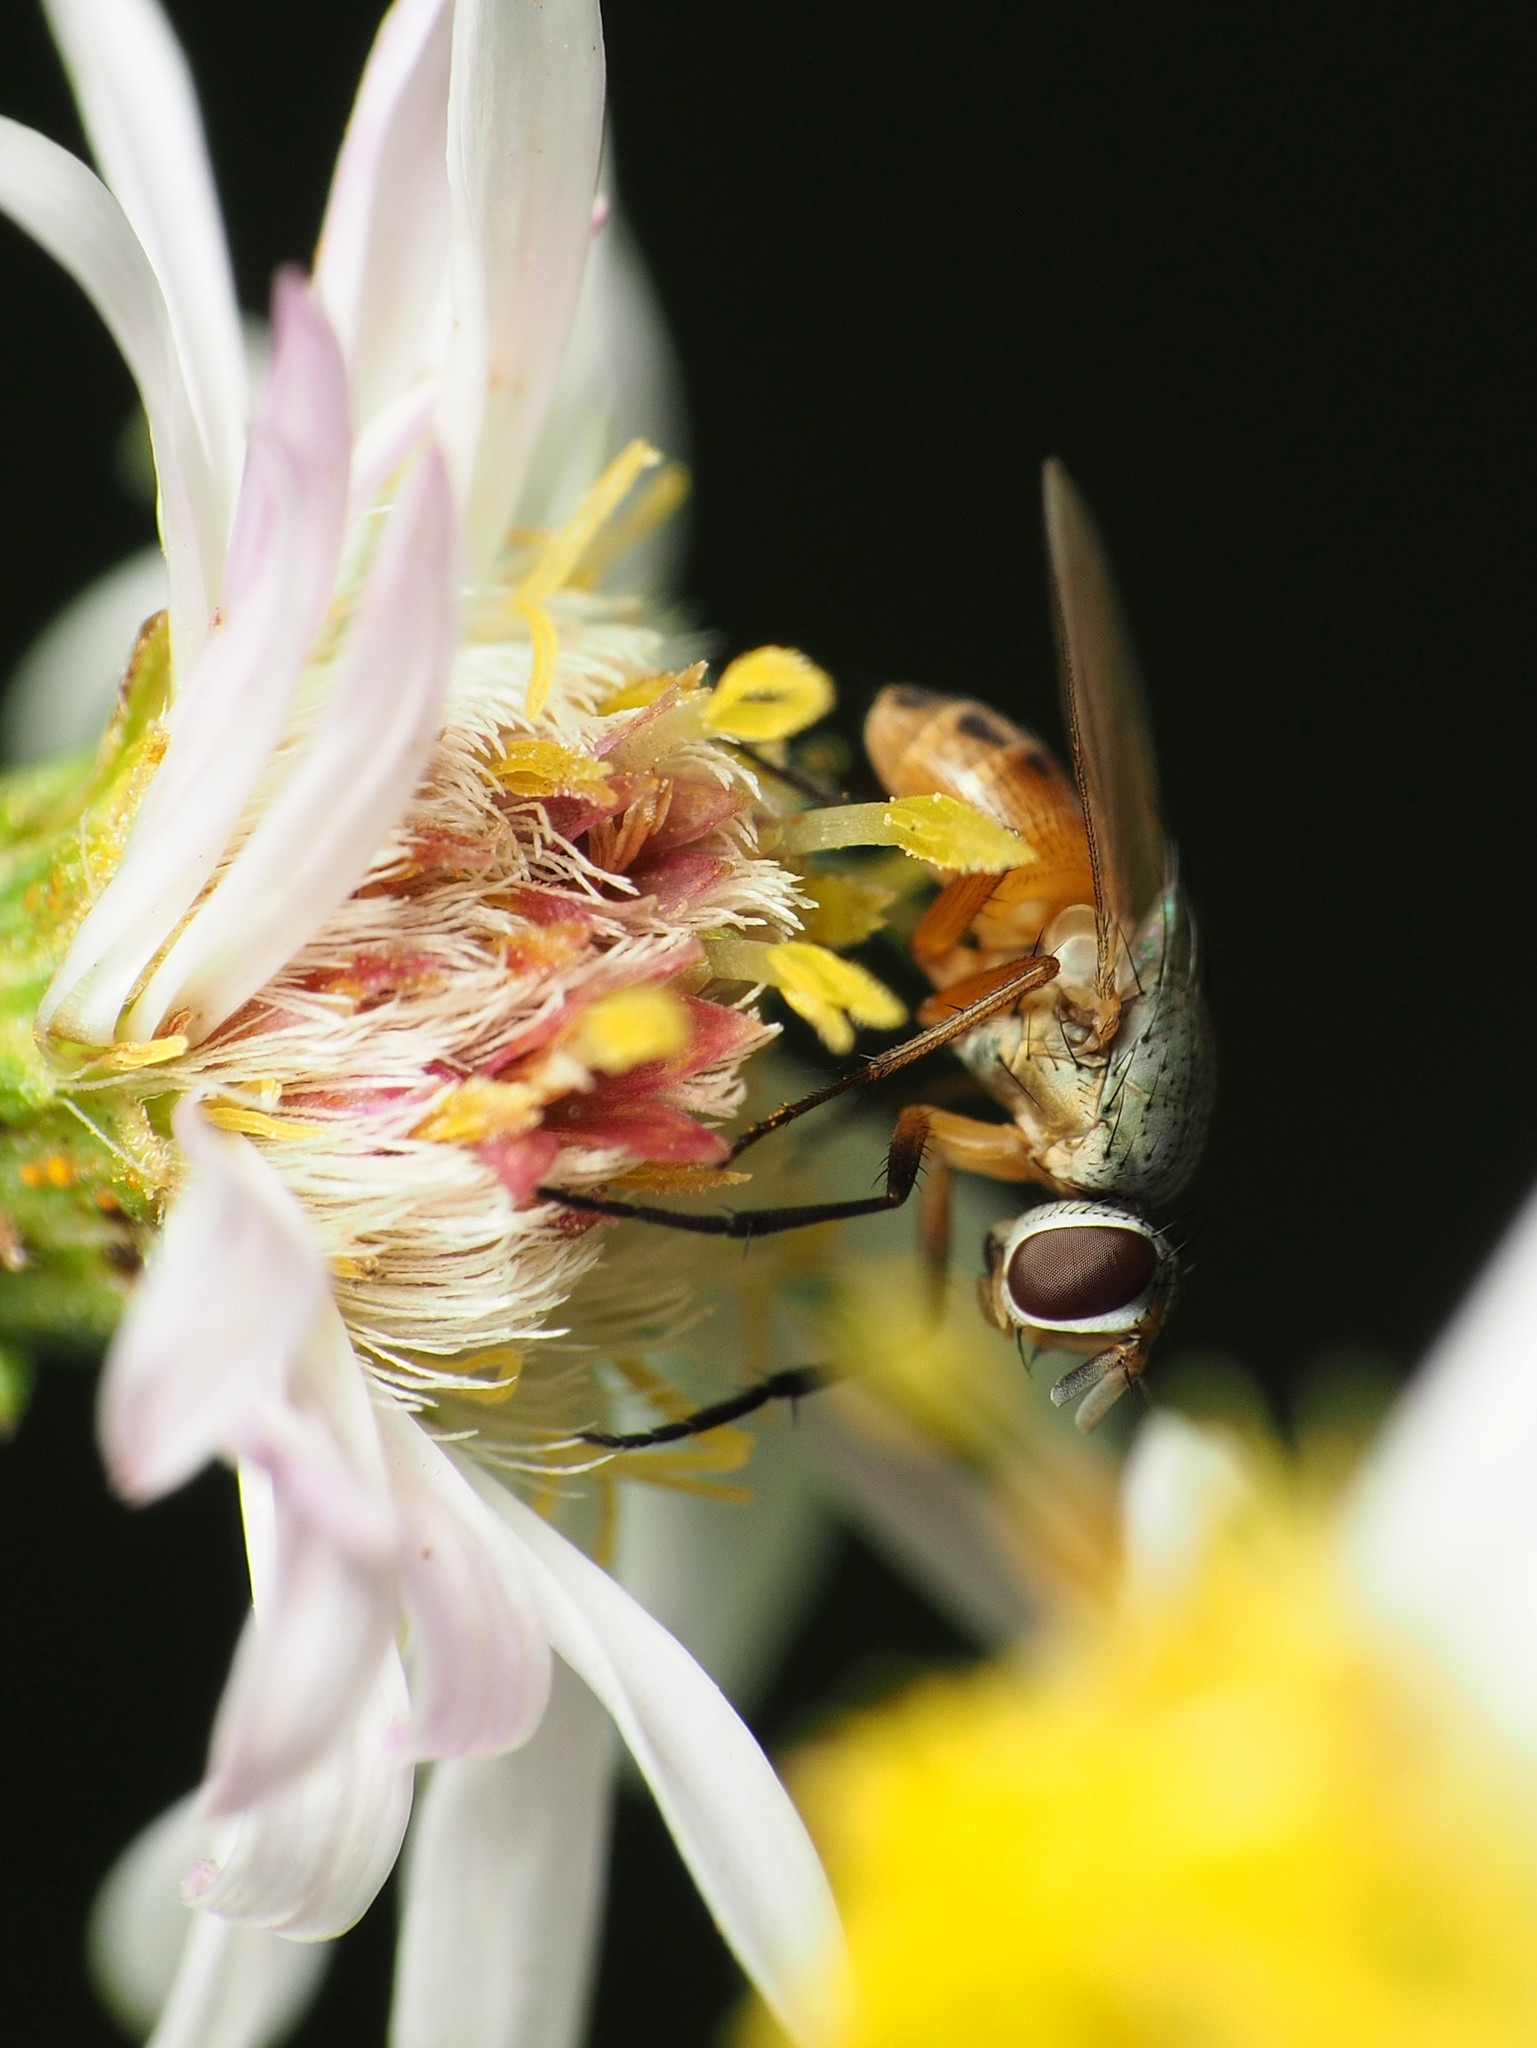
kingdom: Animalia
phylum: Arthropoda
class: Insecta
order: Diptera
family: Muscidae
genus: Atherigona
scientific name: Atherigona reversura
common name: Bermudagrass stem maggot
